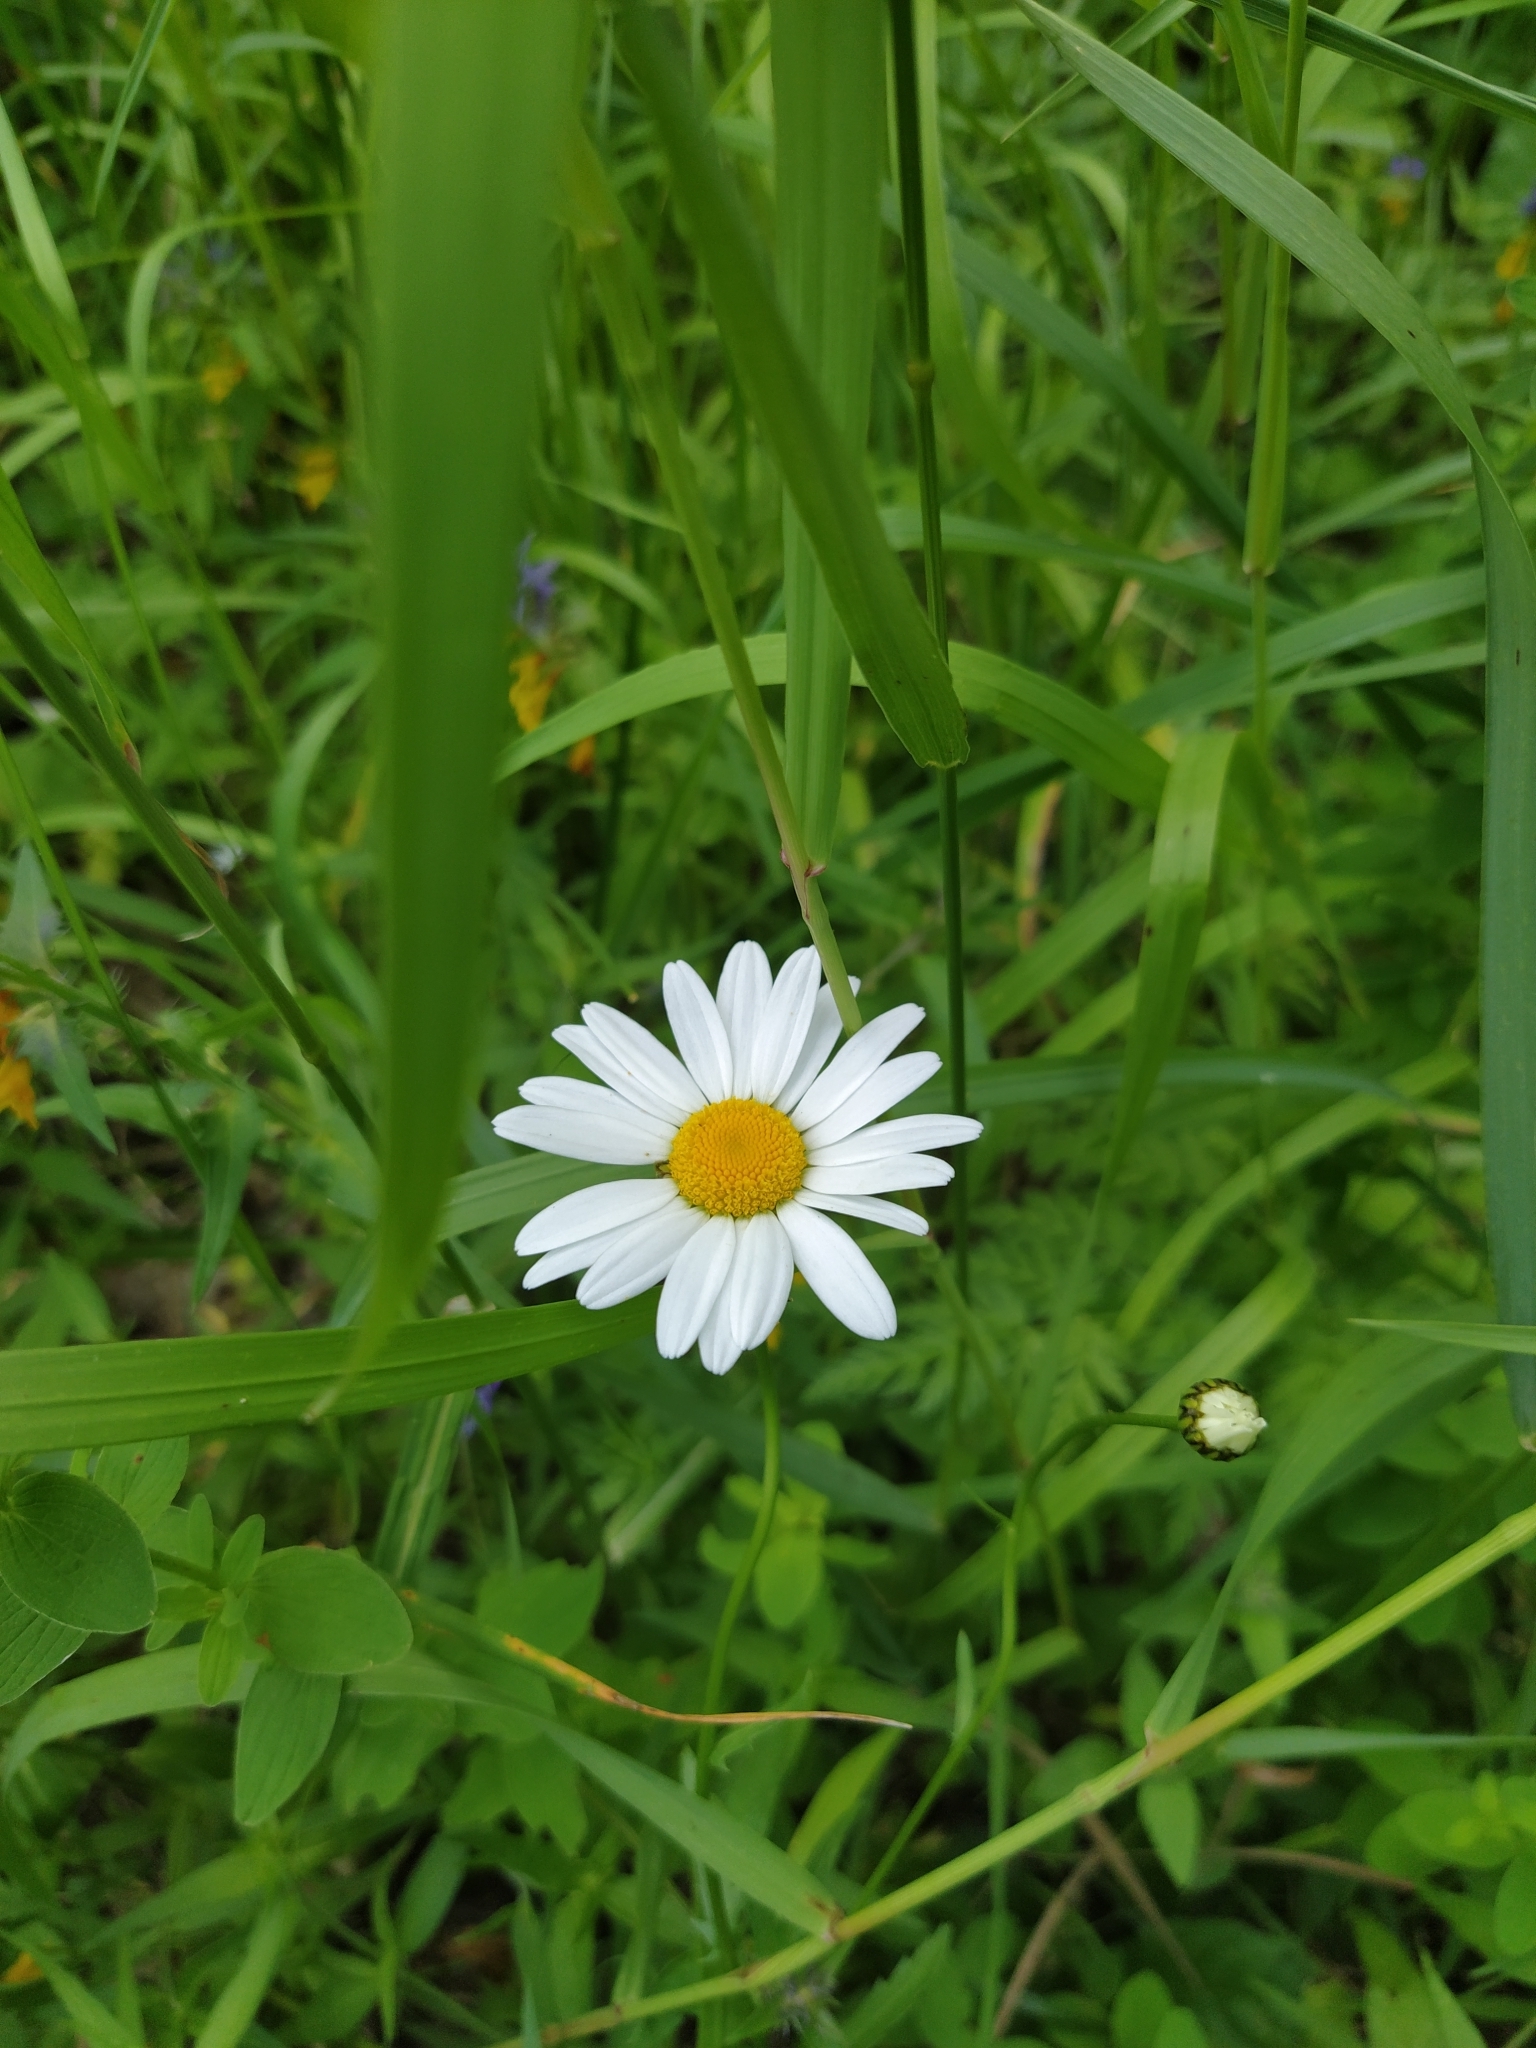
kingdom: Plantae
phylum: Tracheophyta
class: Magnoliopsida
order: Asterales
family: Asteraceae
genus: Leucanthemum
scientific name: Leucanthemum vulgare
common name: Oxeye daisy
